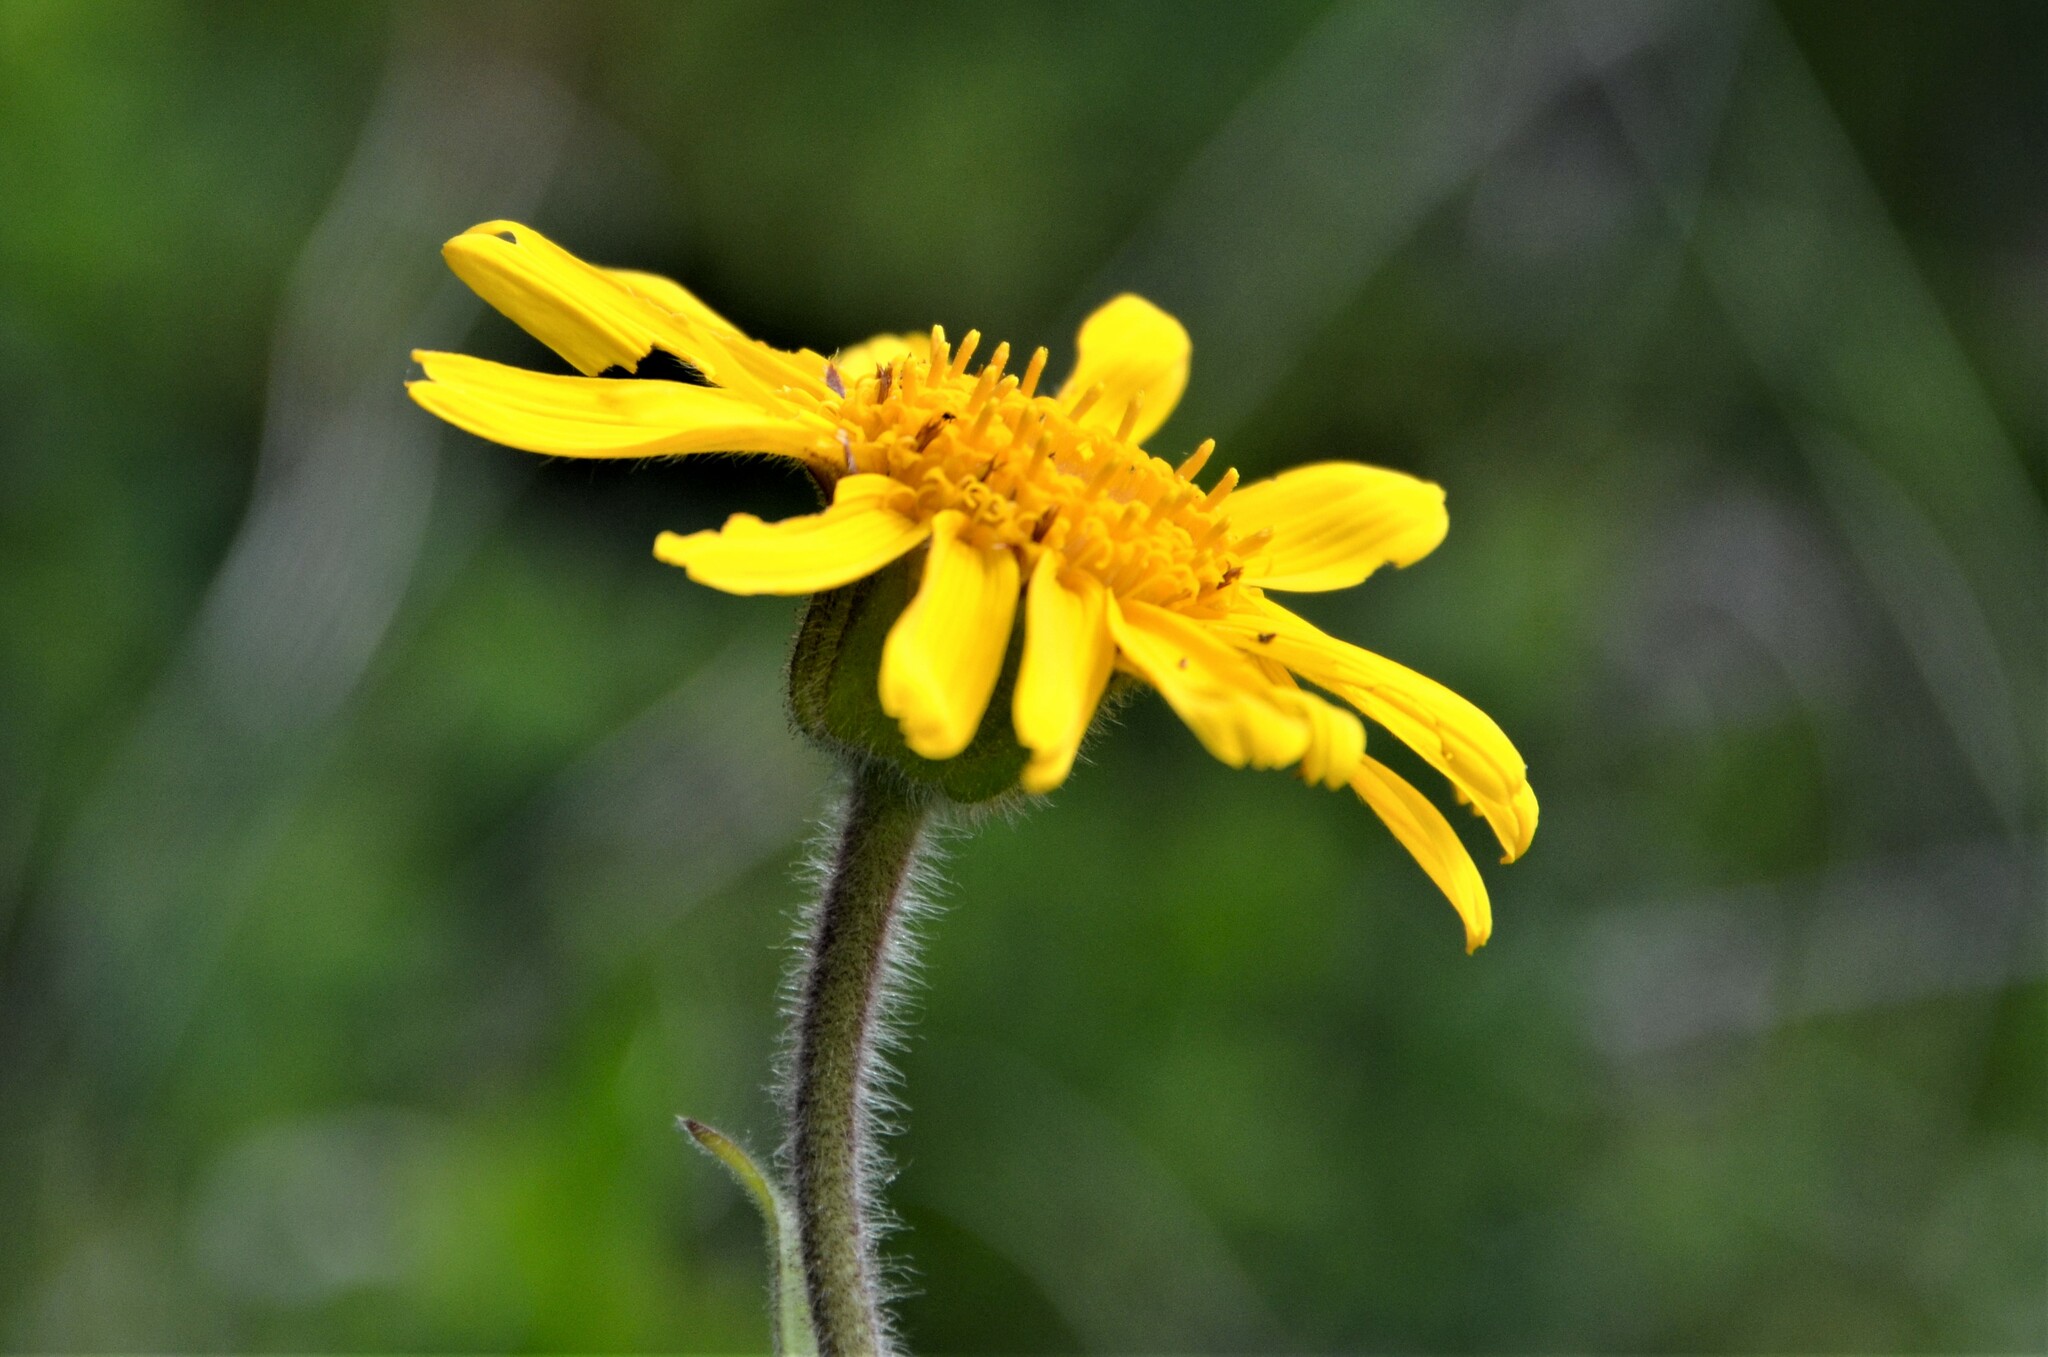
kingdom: Plantae
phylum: Tracheophyta
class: Magnoliopsida
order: Asterales
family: Asteraceae
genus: Arnica
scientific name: Arnica montana
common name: Leopard's bane
